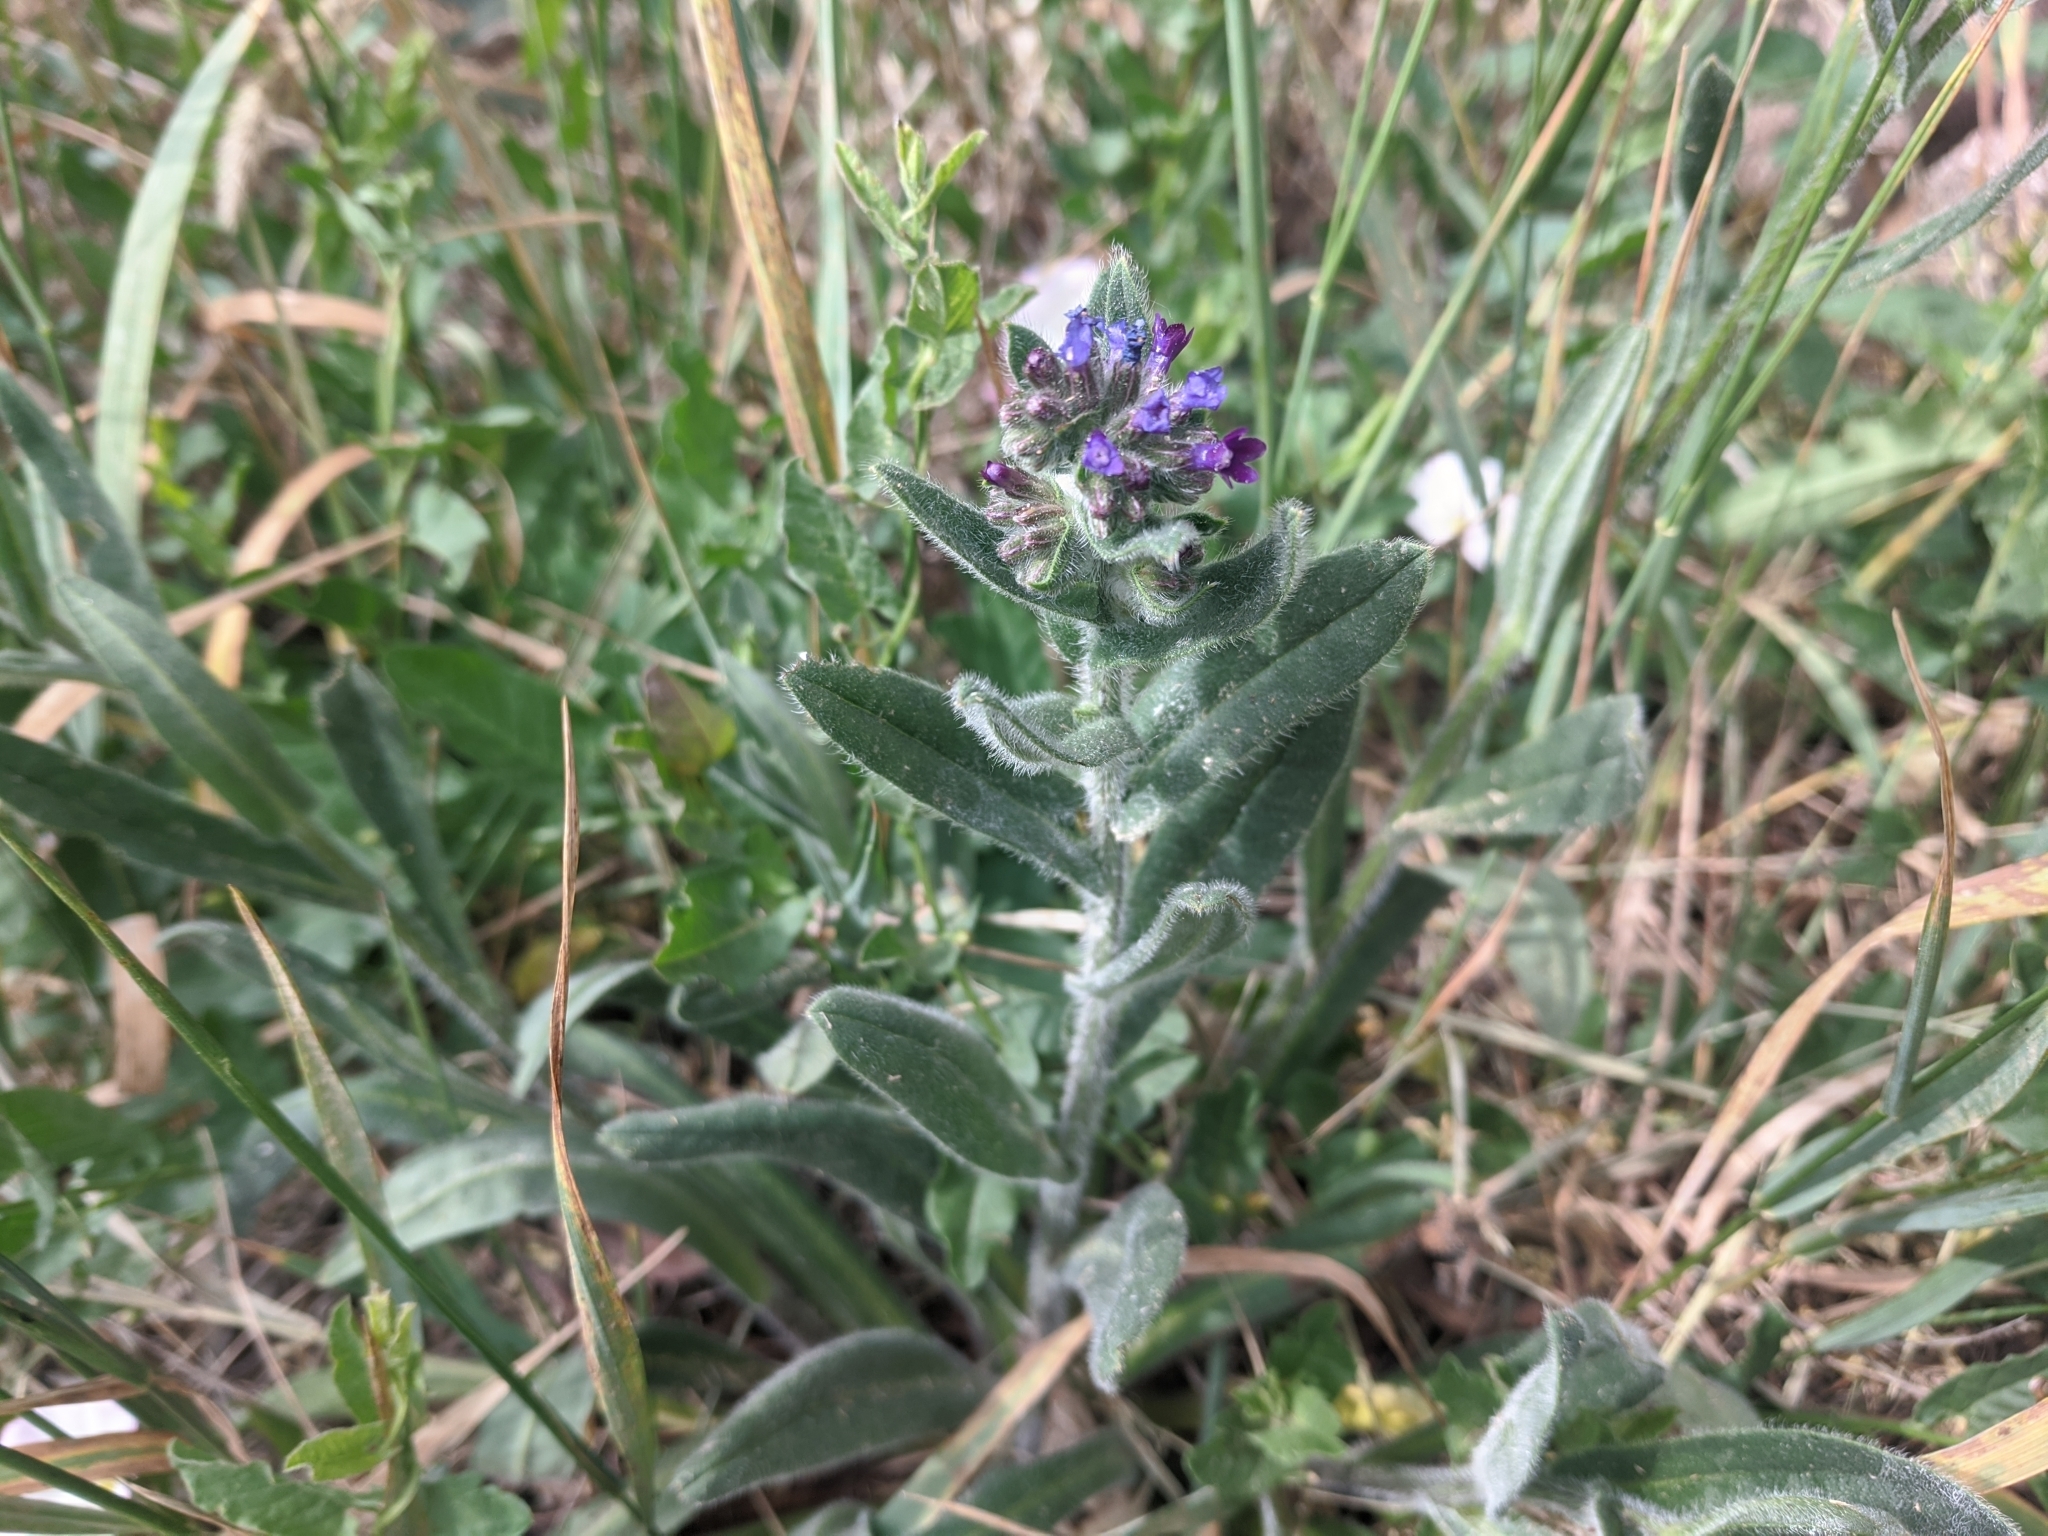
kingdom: Plantae
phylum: Tracheophyta
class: Magnoliopsida
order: Boraginales
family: Boraginaceae
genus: Anchusa
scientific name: Anchusa officinalis
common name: Alkanet
